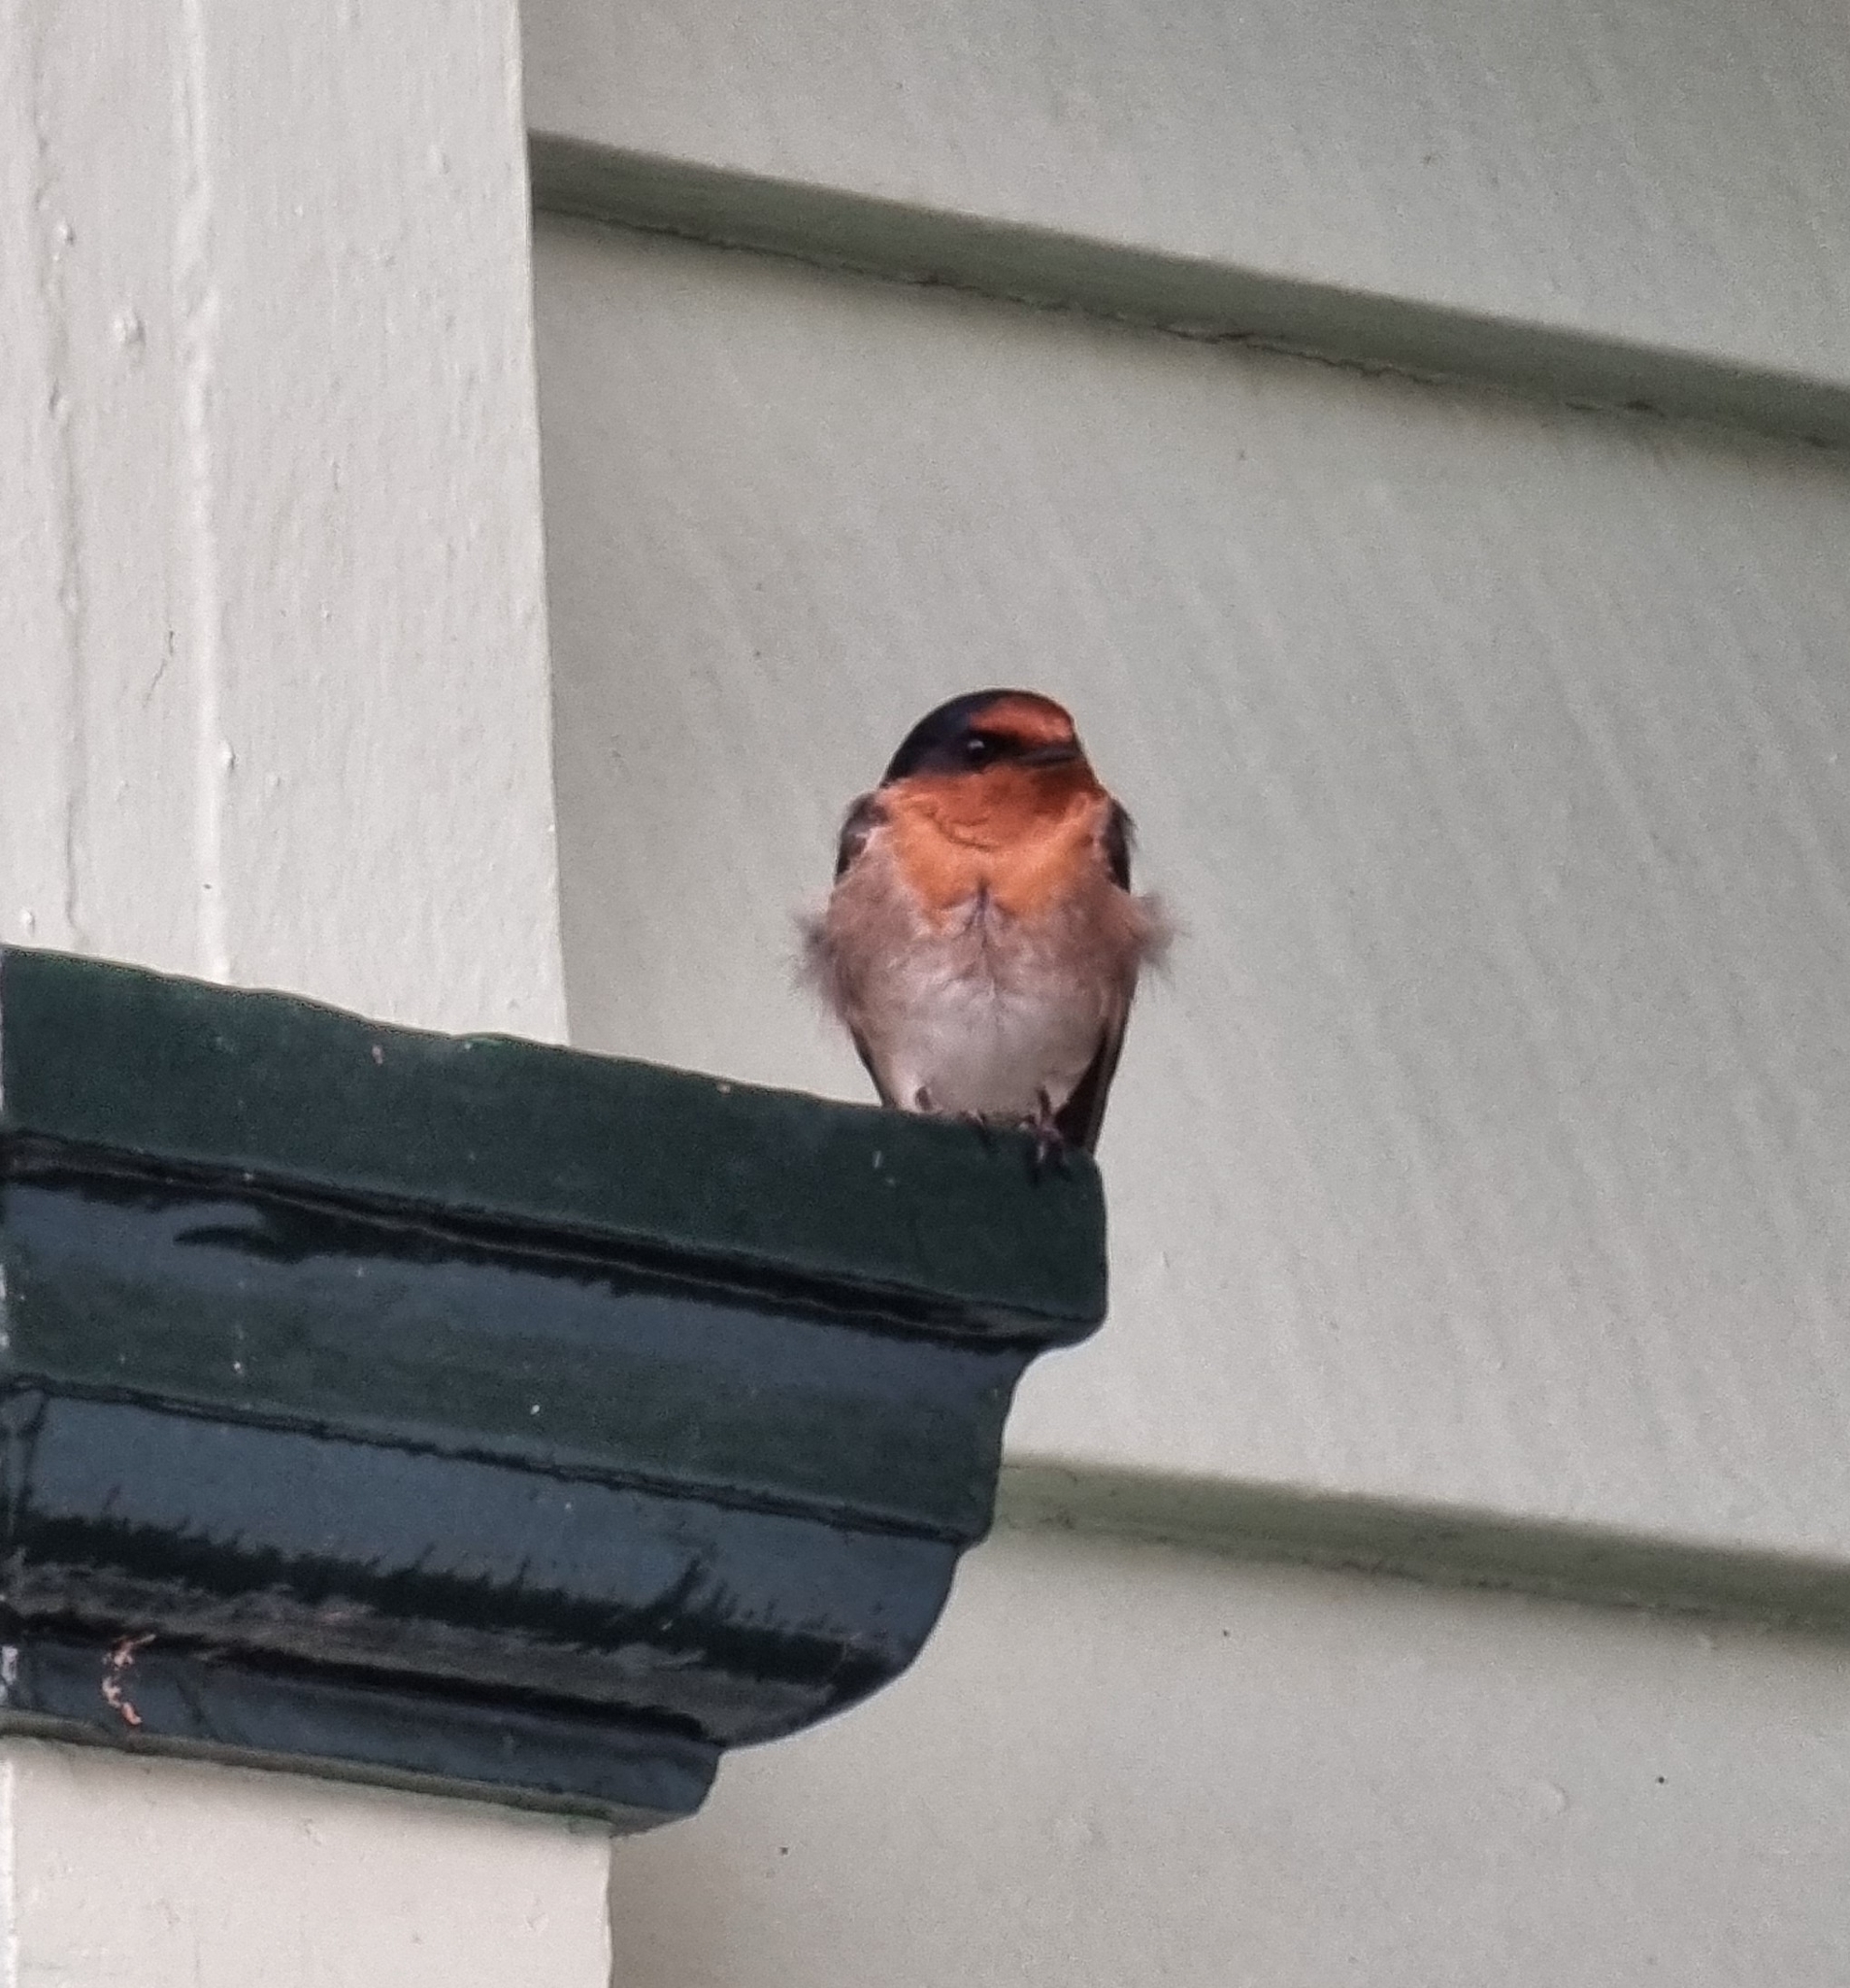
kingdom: Animalia
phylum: Chordata
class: Aves
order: Passeriformes
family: Hirundinidae
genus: Hirundo
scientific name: Hirundo neoxena
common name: Welcome swallow
